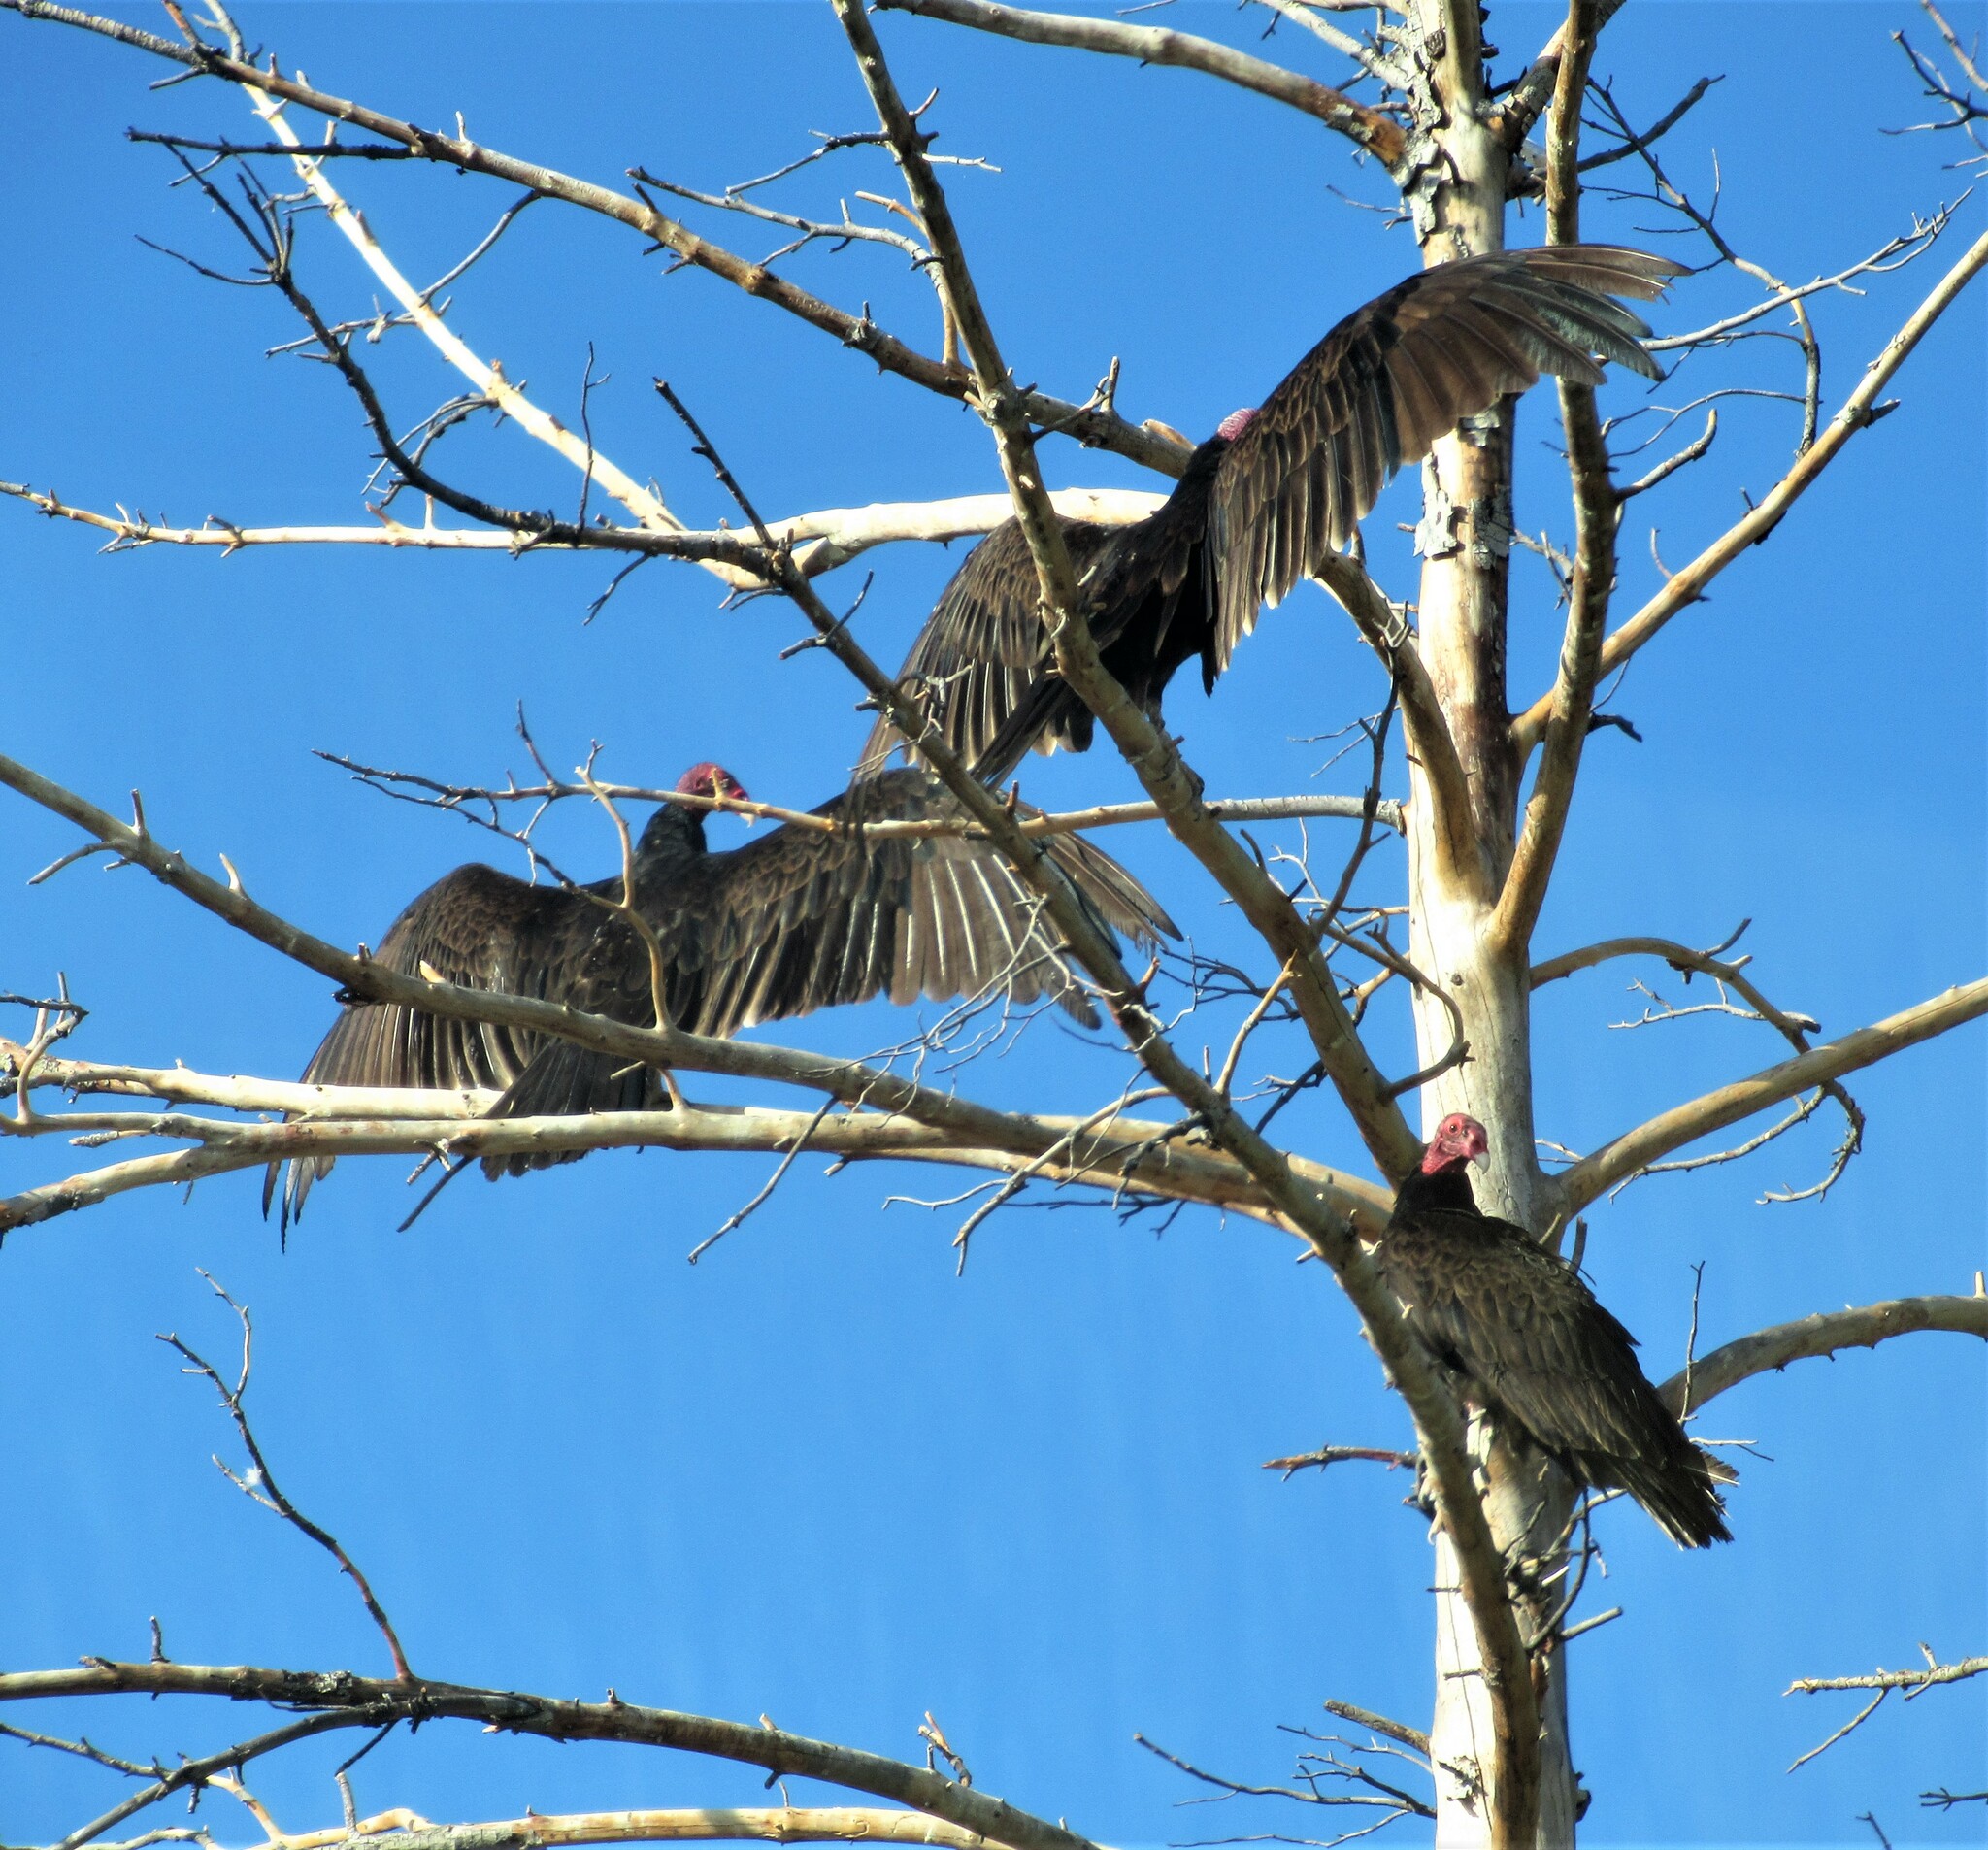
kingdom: Animalia
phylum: Chordata
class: Aves
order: Accipitriformes
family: Cathartidae
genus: Cathartes
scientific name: Cathartes aura
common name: Turkey vulture
